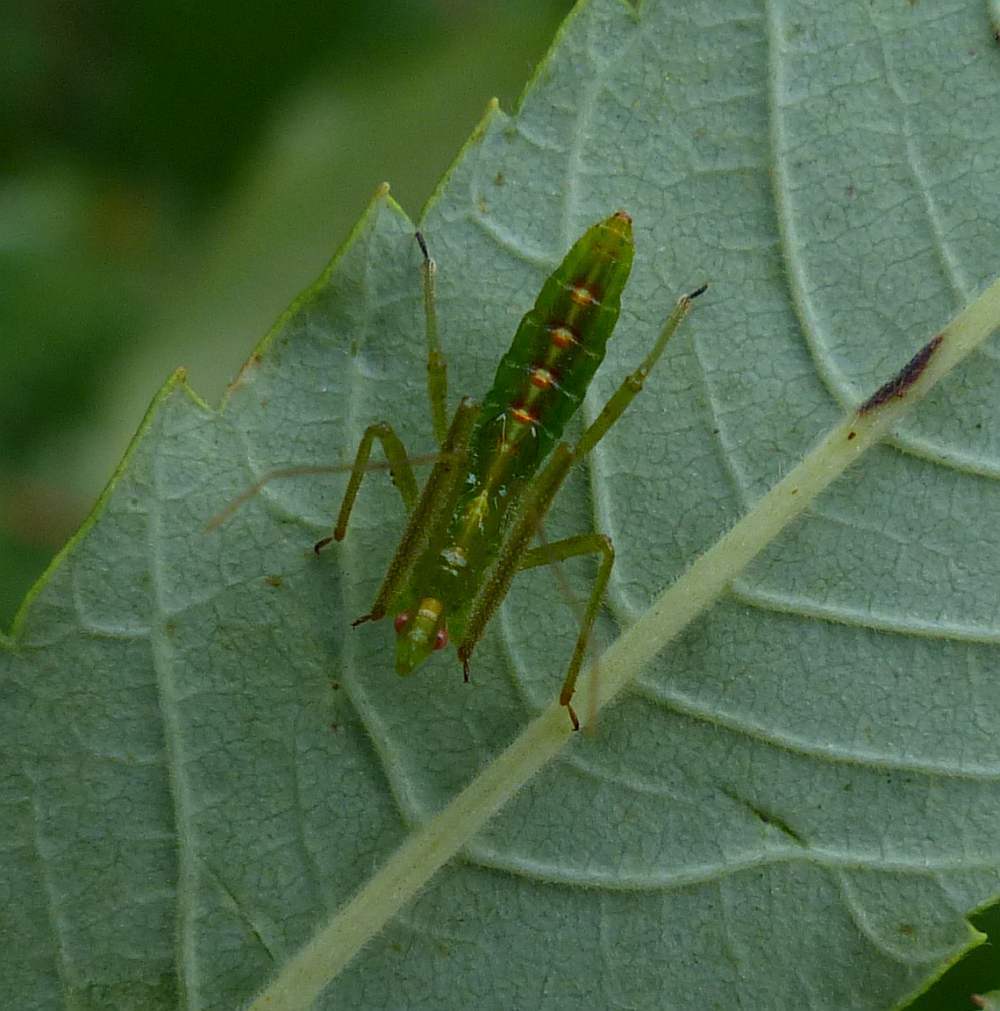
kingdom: Animalia
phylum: Arthropoda
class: Insecta
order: Hemiptera
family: Reduviidae
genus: Zelus
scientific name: Zelus luridus
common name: Pale green assassin bug
